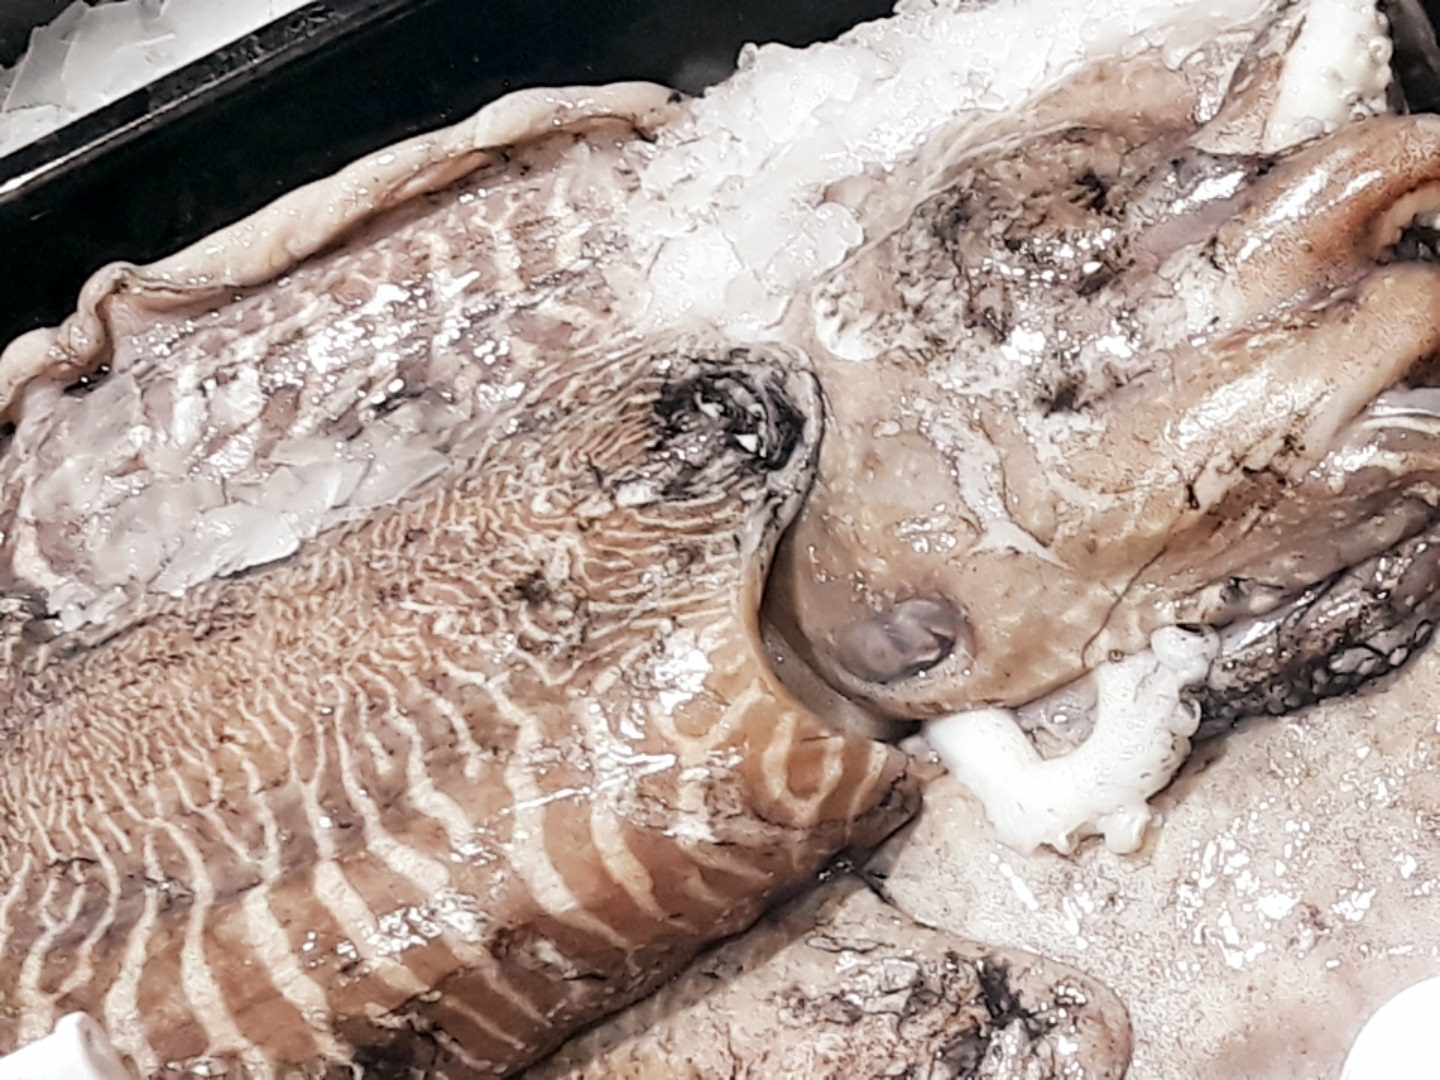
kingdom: Animalia
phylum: Mollusca
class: Cephalopoda
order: Sepiida
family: Sepiidae
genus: Sepia
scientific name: Sepia officinalis
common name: Common cuttlefish
